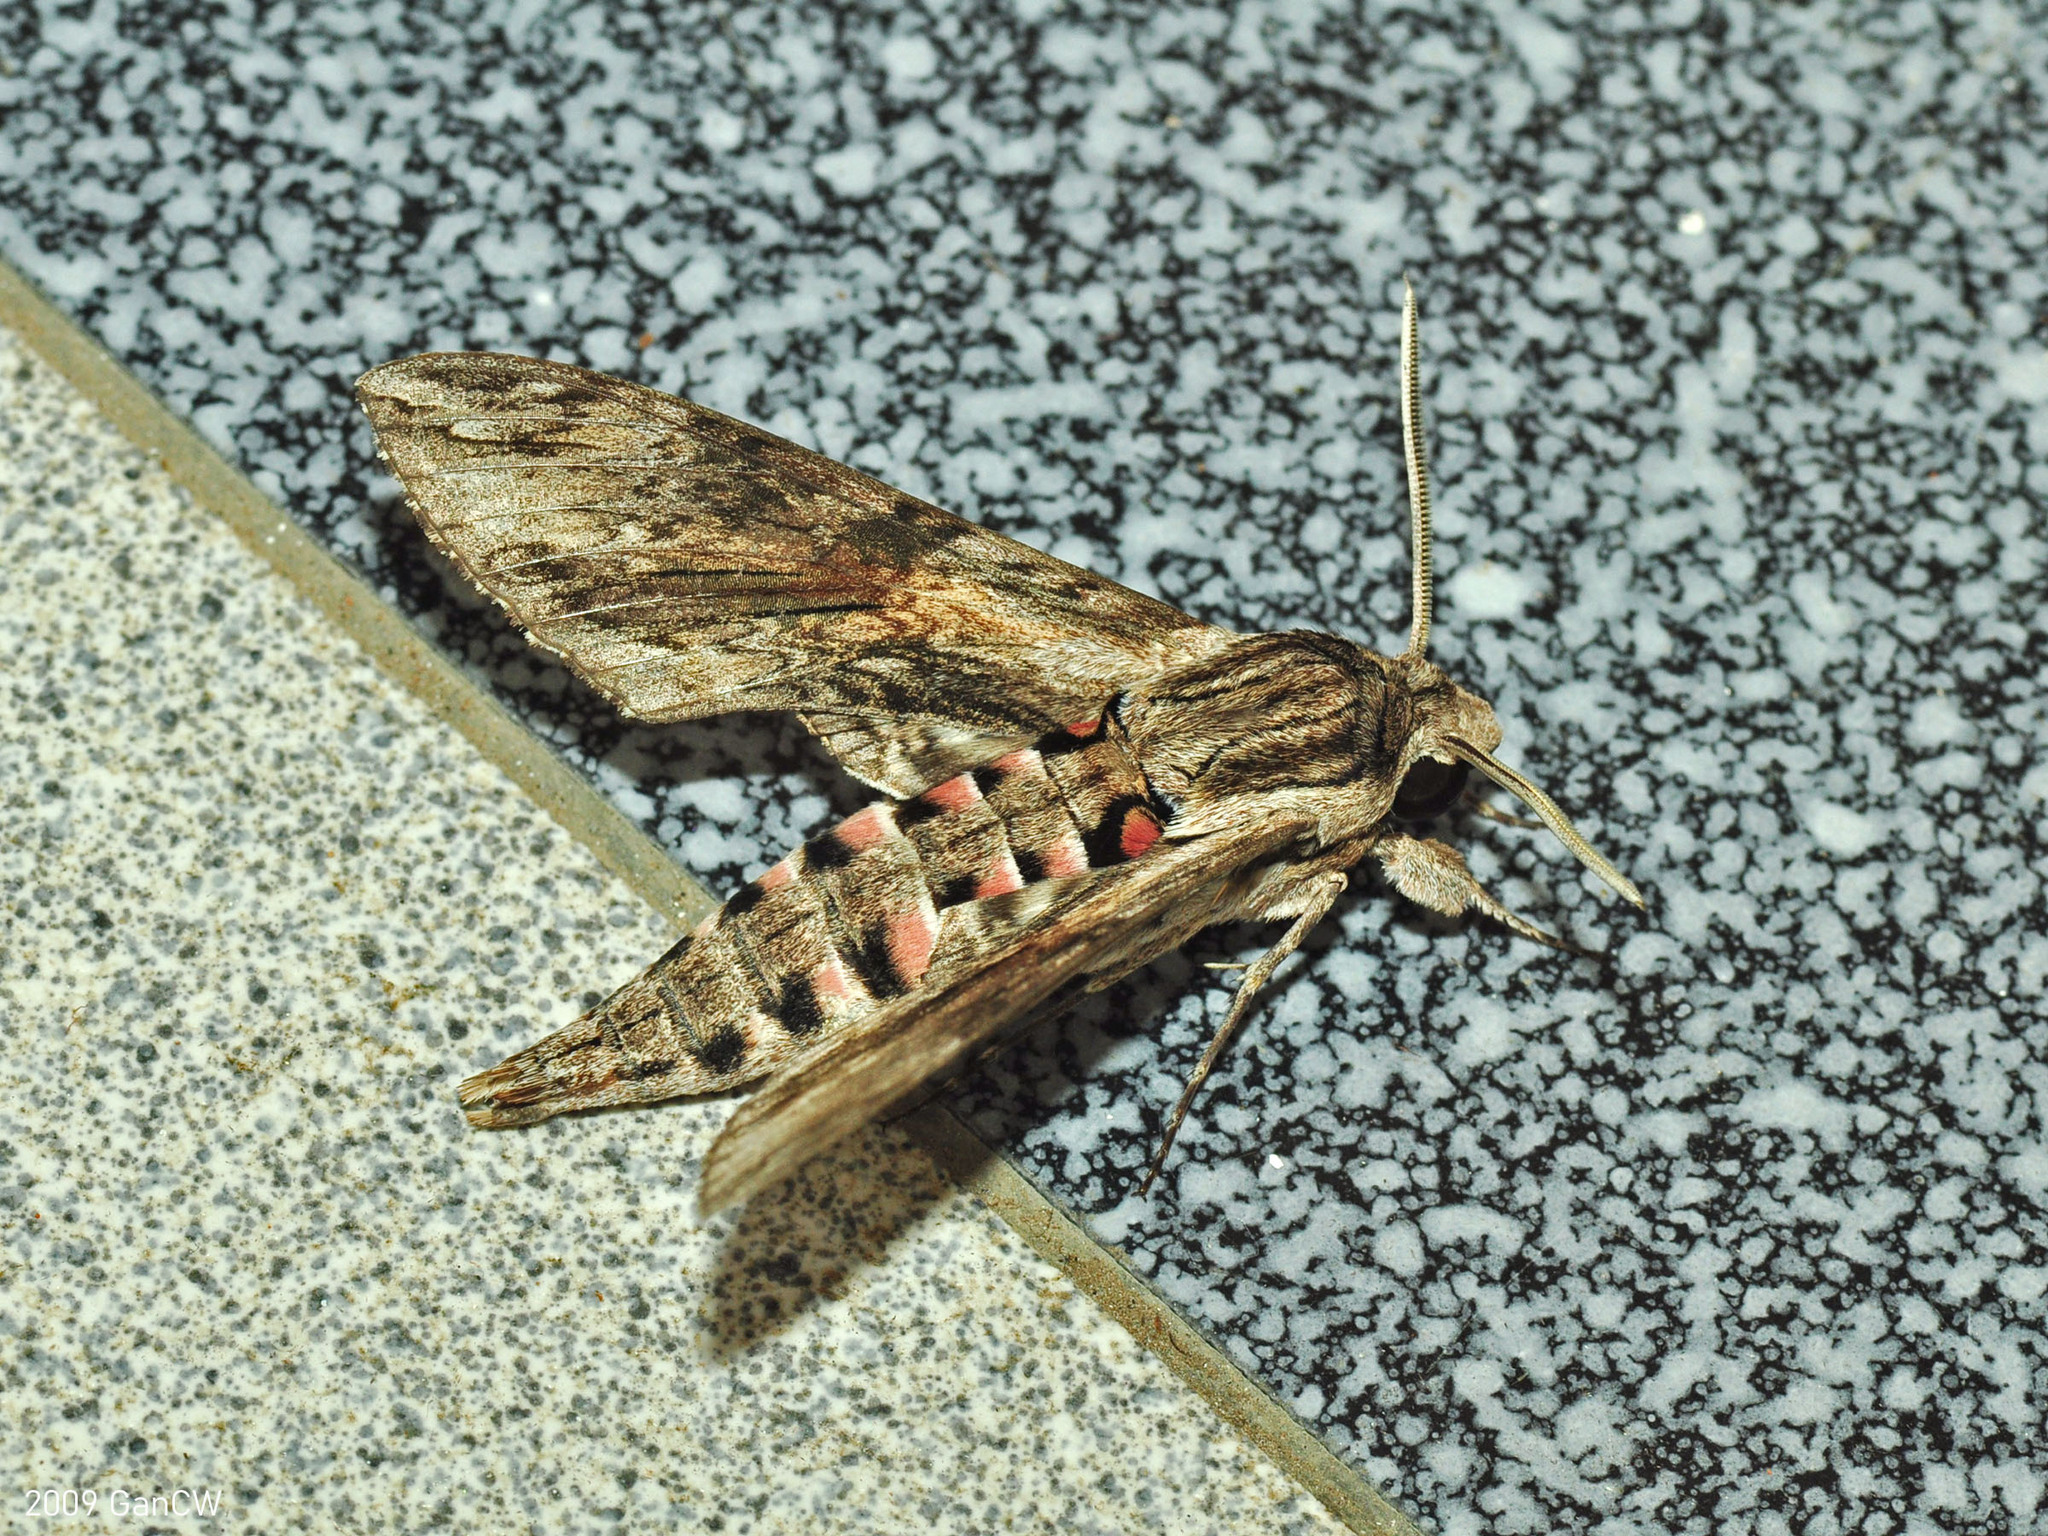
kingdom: Animalia
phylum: Arthropoda
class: Insecta
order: Lepidoptera
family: Sphingidae
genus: Agrius
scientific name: Agrius convolvuli
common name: Convolvulus hawkmoth
